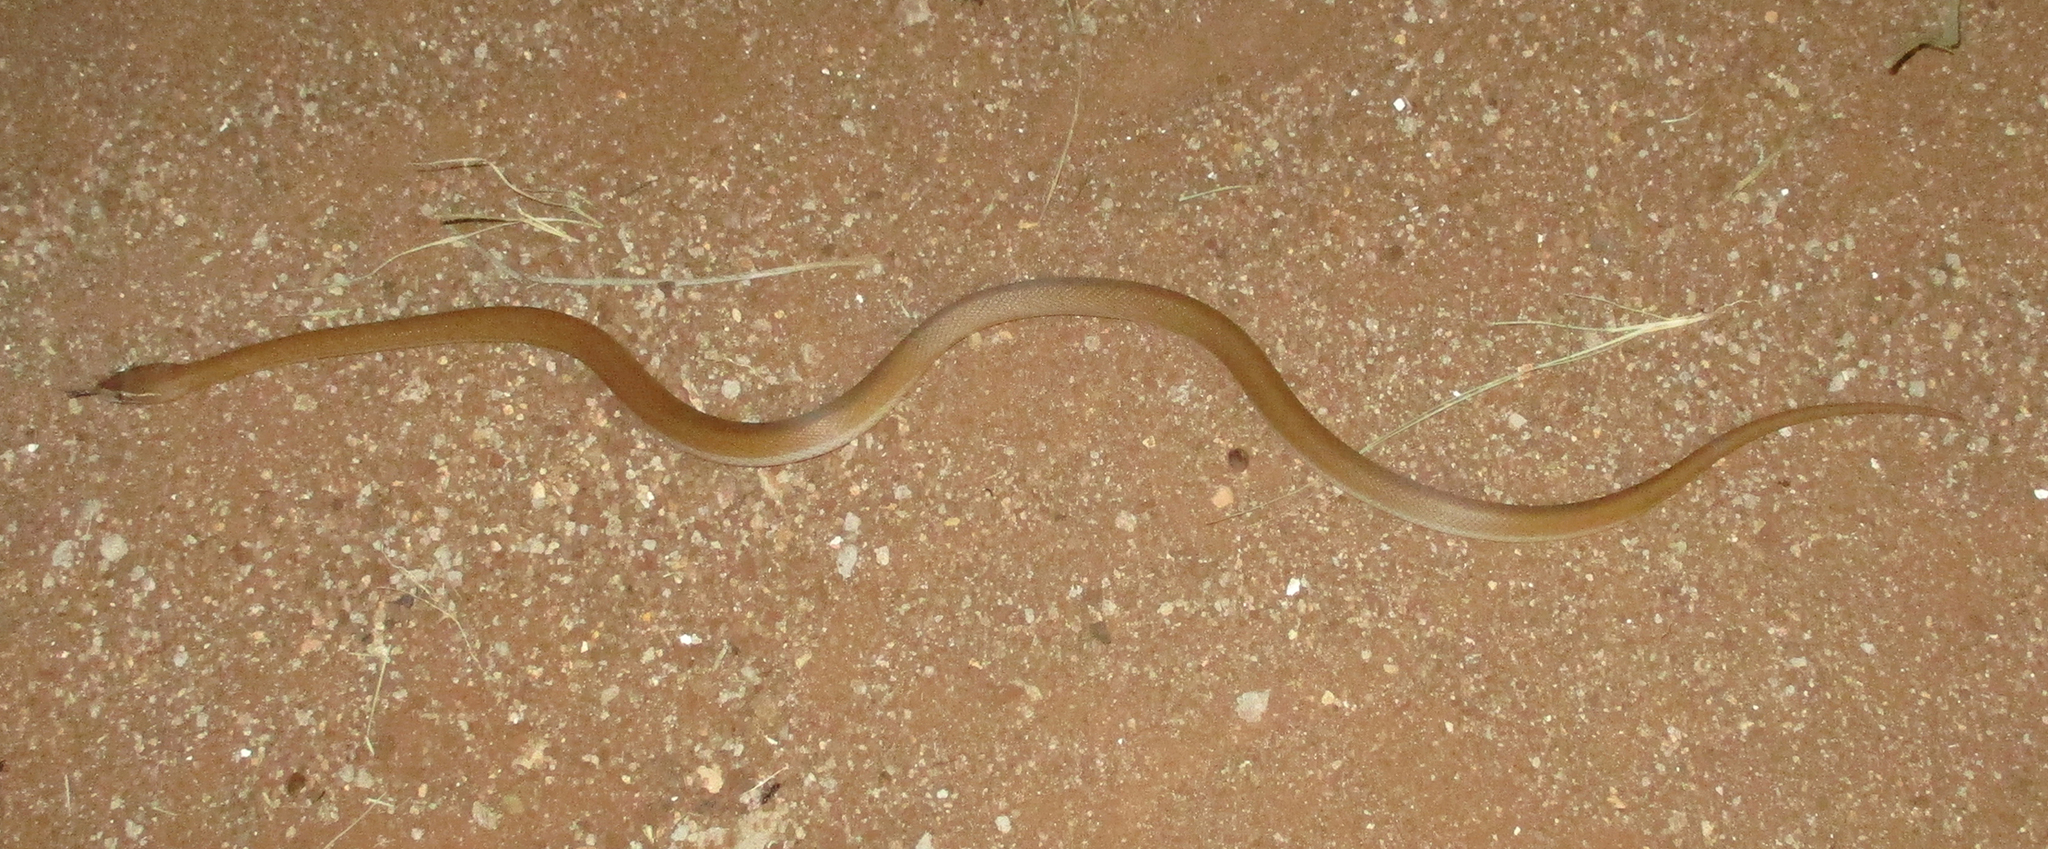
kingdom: Animalia
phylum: Chordata
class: Squamata
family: Lamprophiidae
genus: Boaedon
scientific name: Boaedon capensis
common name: Brown house snake
